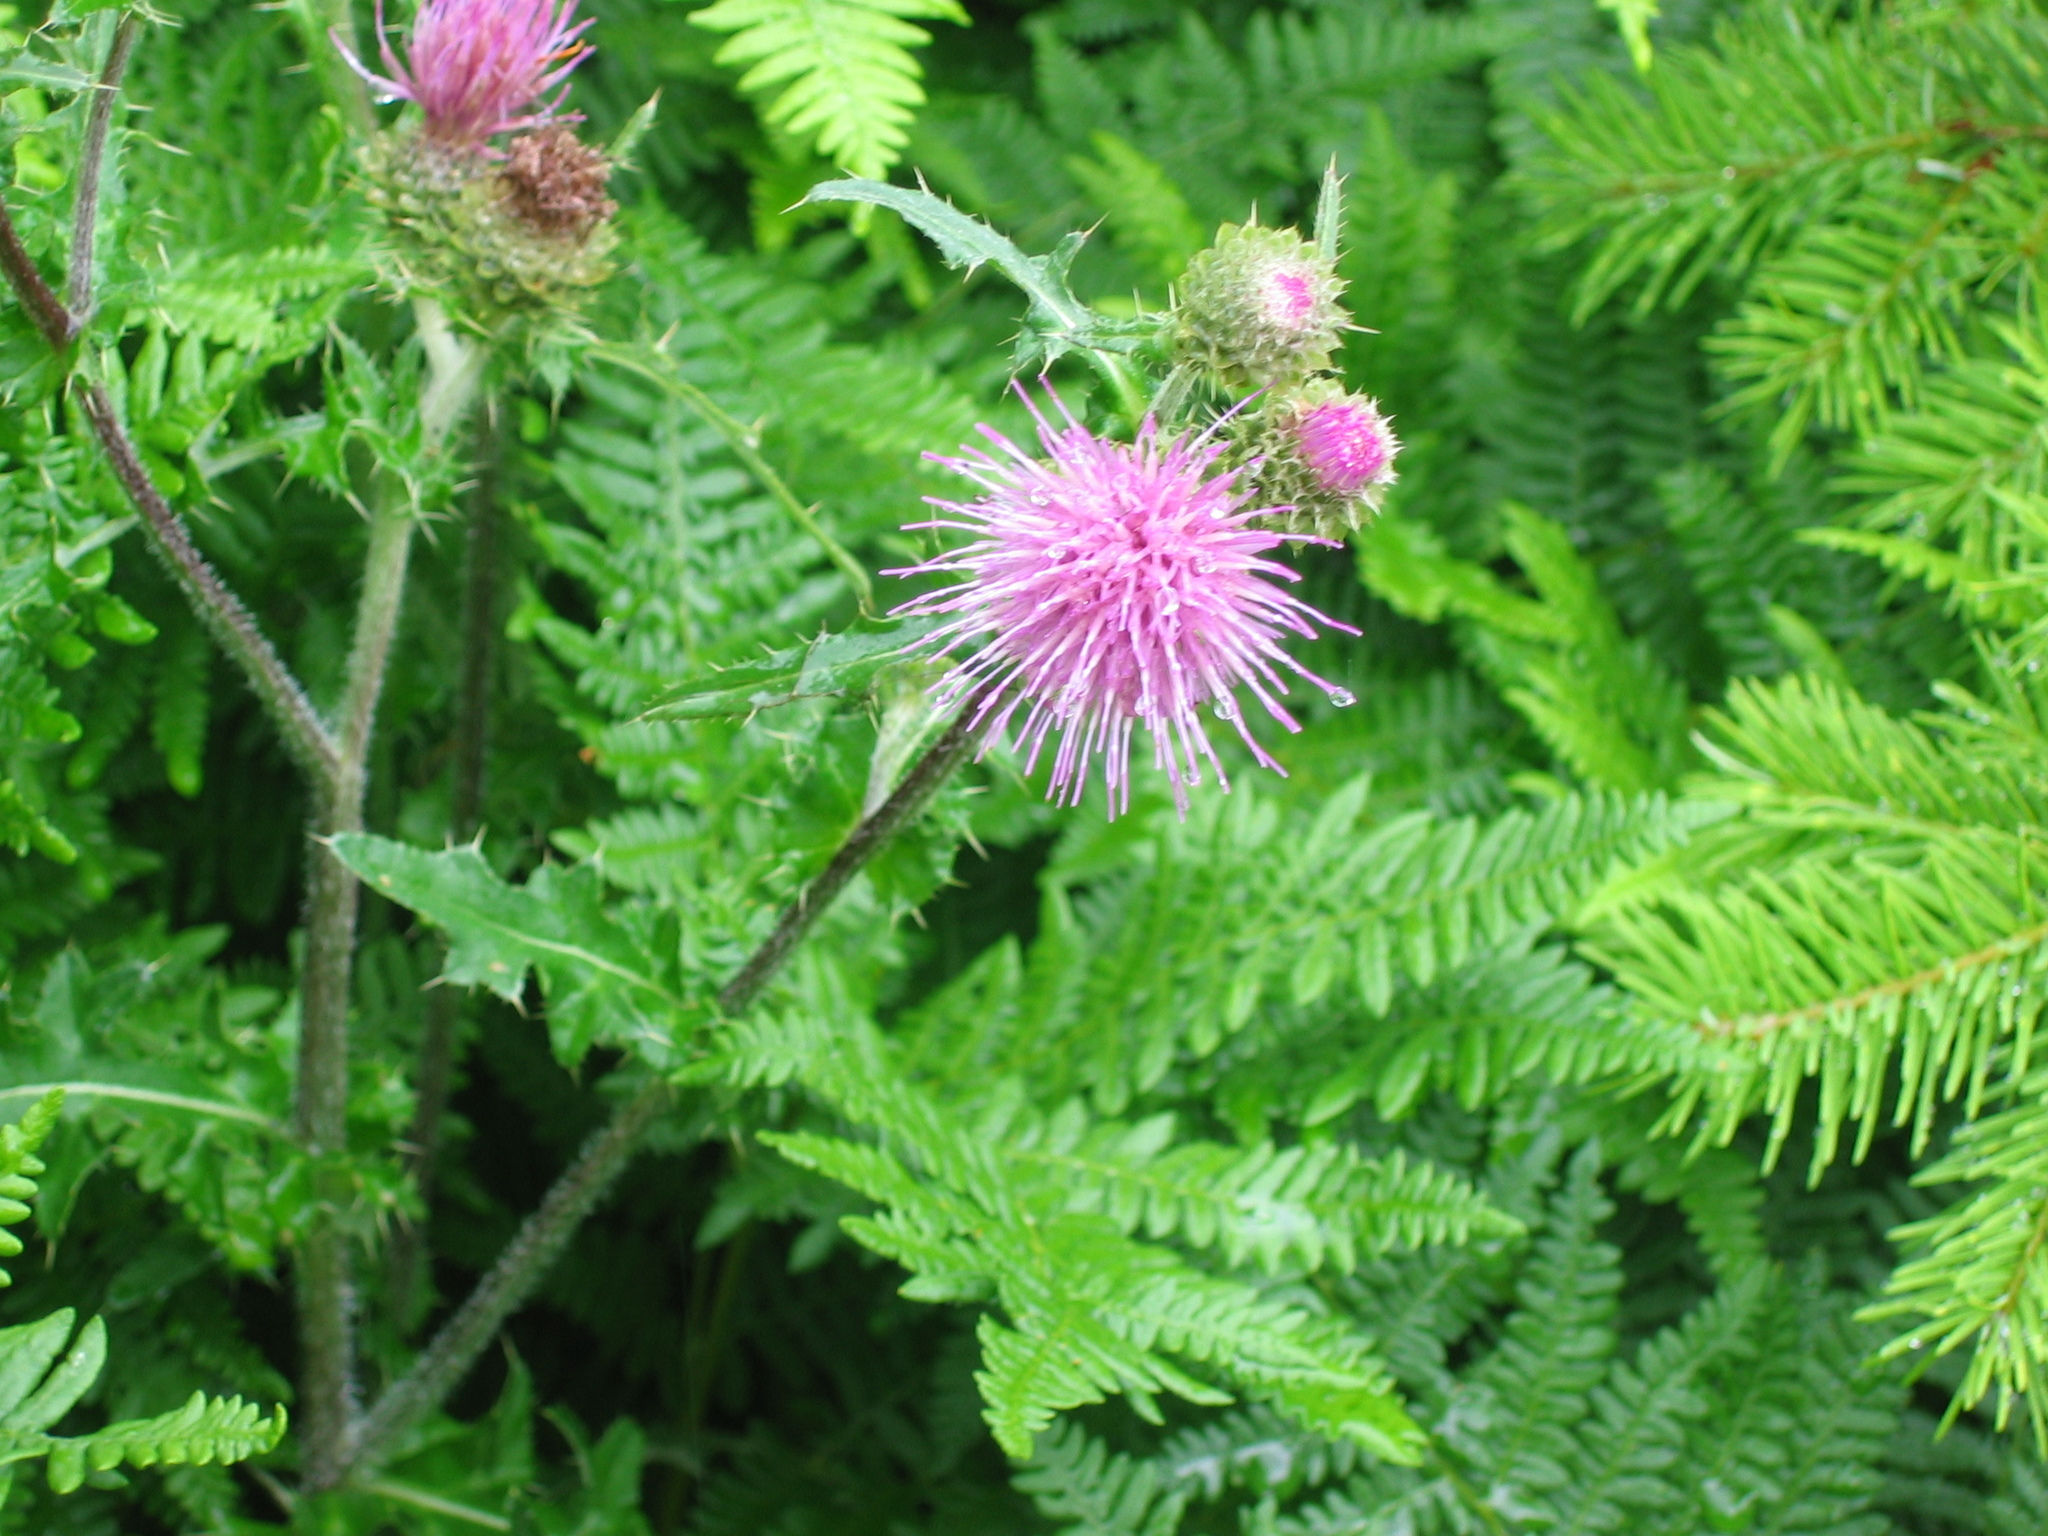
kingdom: Plantae
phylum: Tracheophyta
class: Magnoliopsida
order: Asterales
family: Asteraceae
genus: Cirsium
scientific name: Cirsium remotifolium
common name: Remote-leaf thistle
